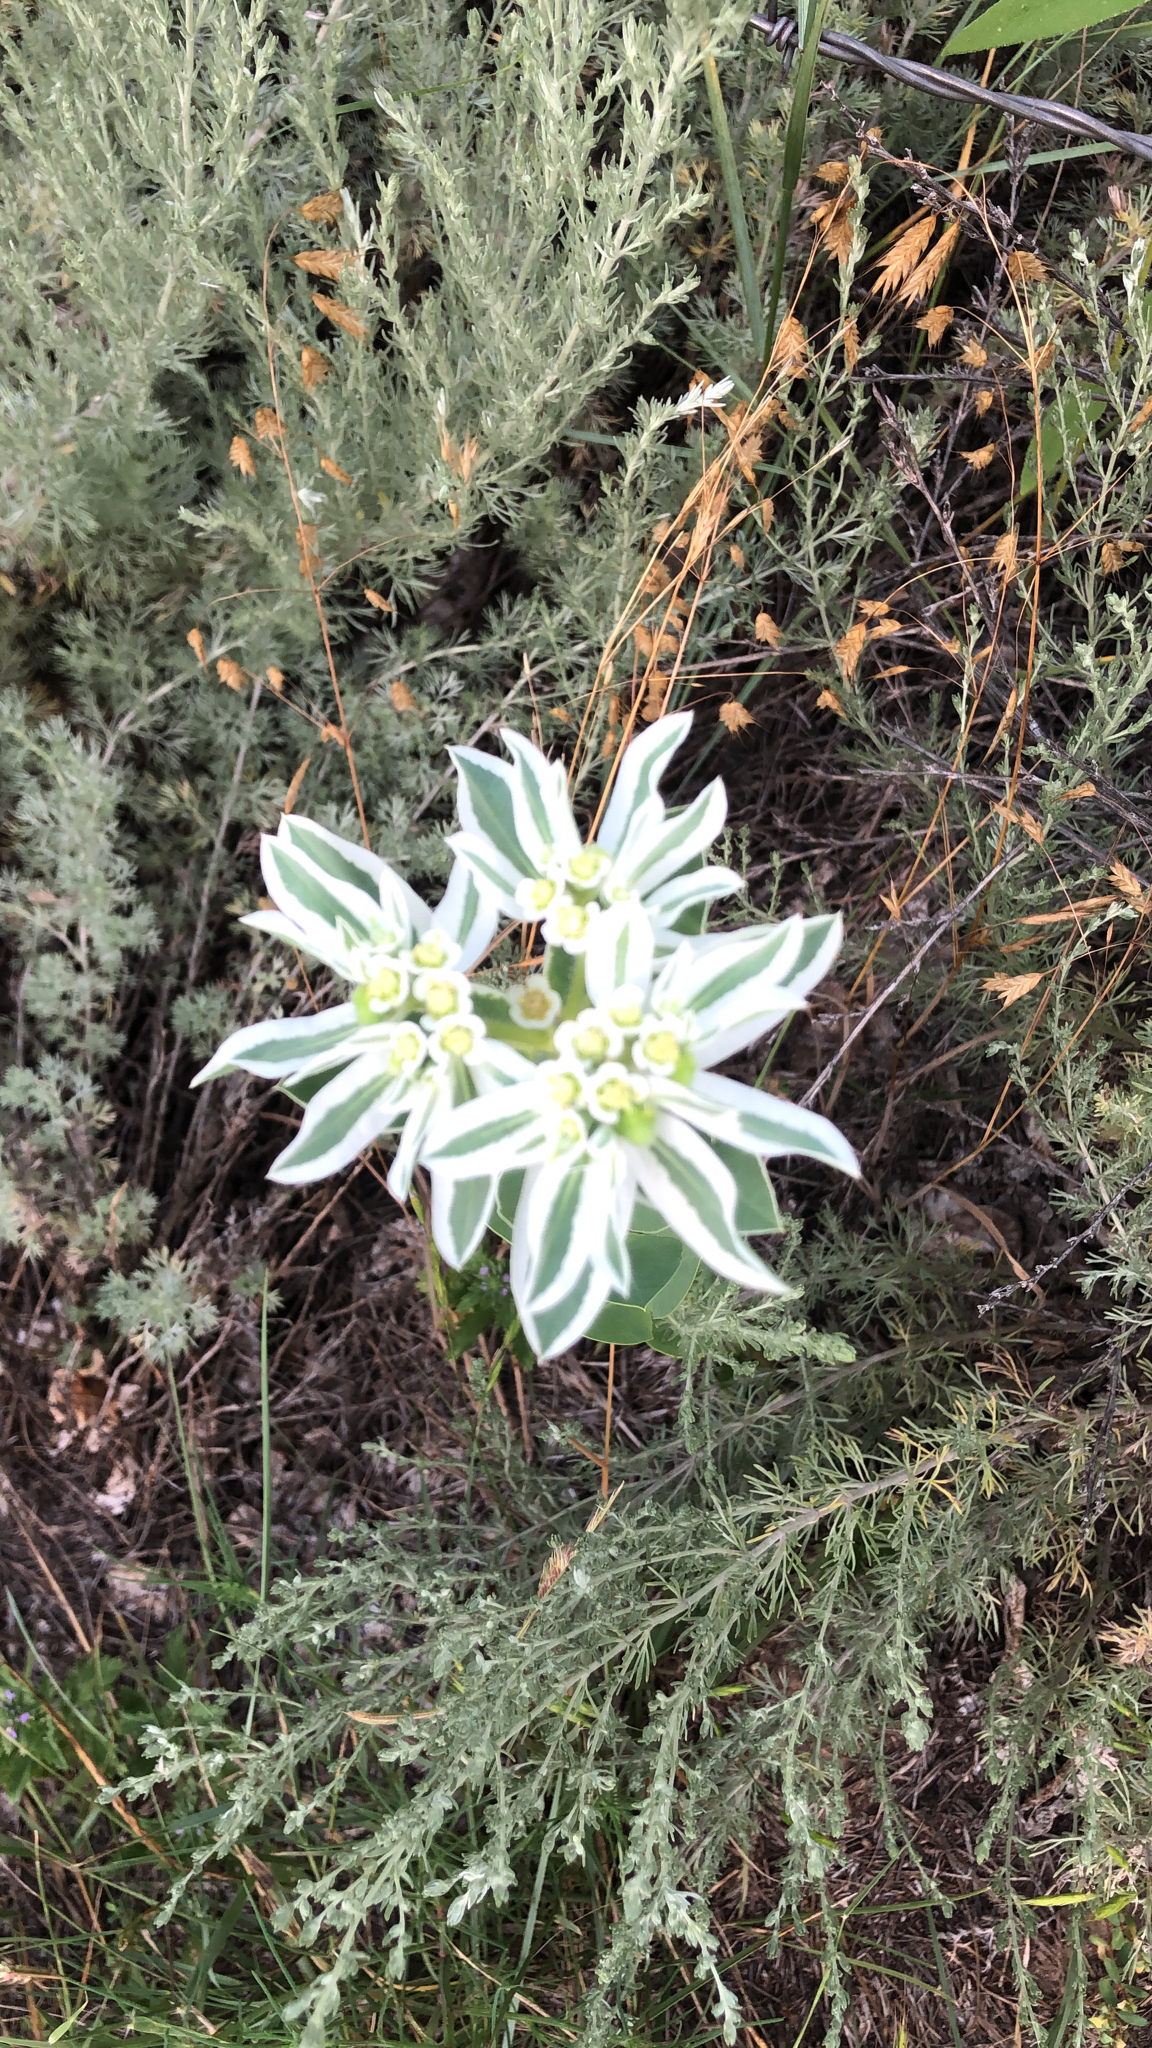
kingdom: Plantae
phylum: Tracheophyta
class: Magnoliopsida
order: Malpighiales
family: Euphorbiaceae
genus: Euphorbia
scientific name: Euphorbia marginata
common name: Ghostweed
